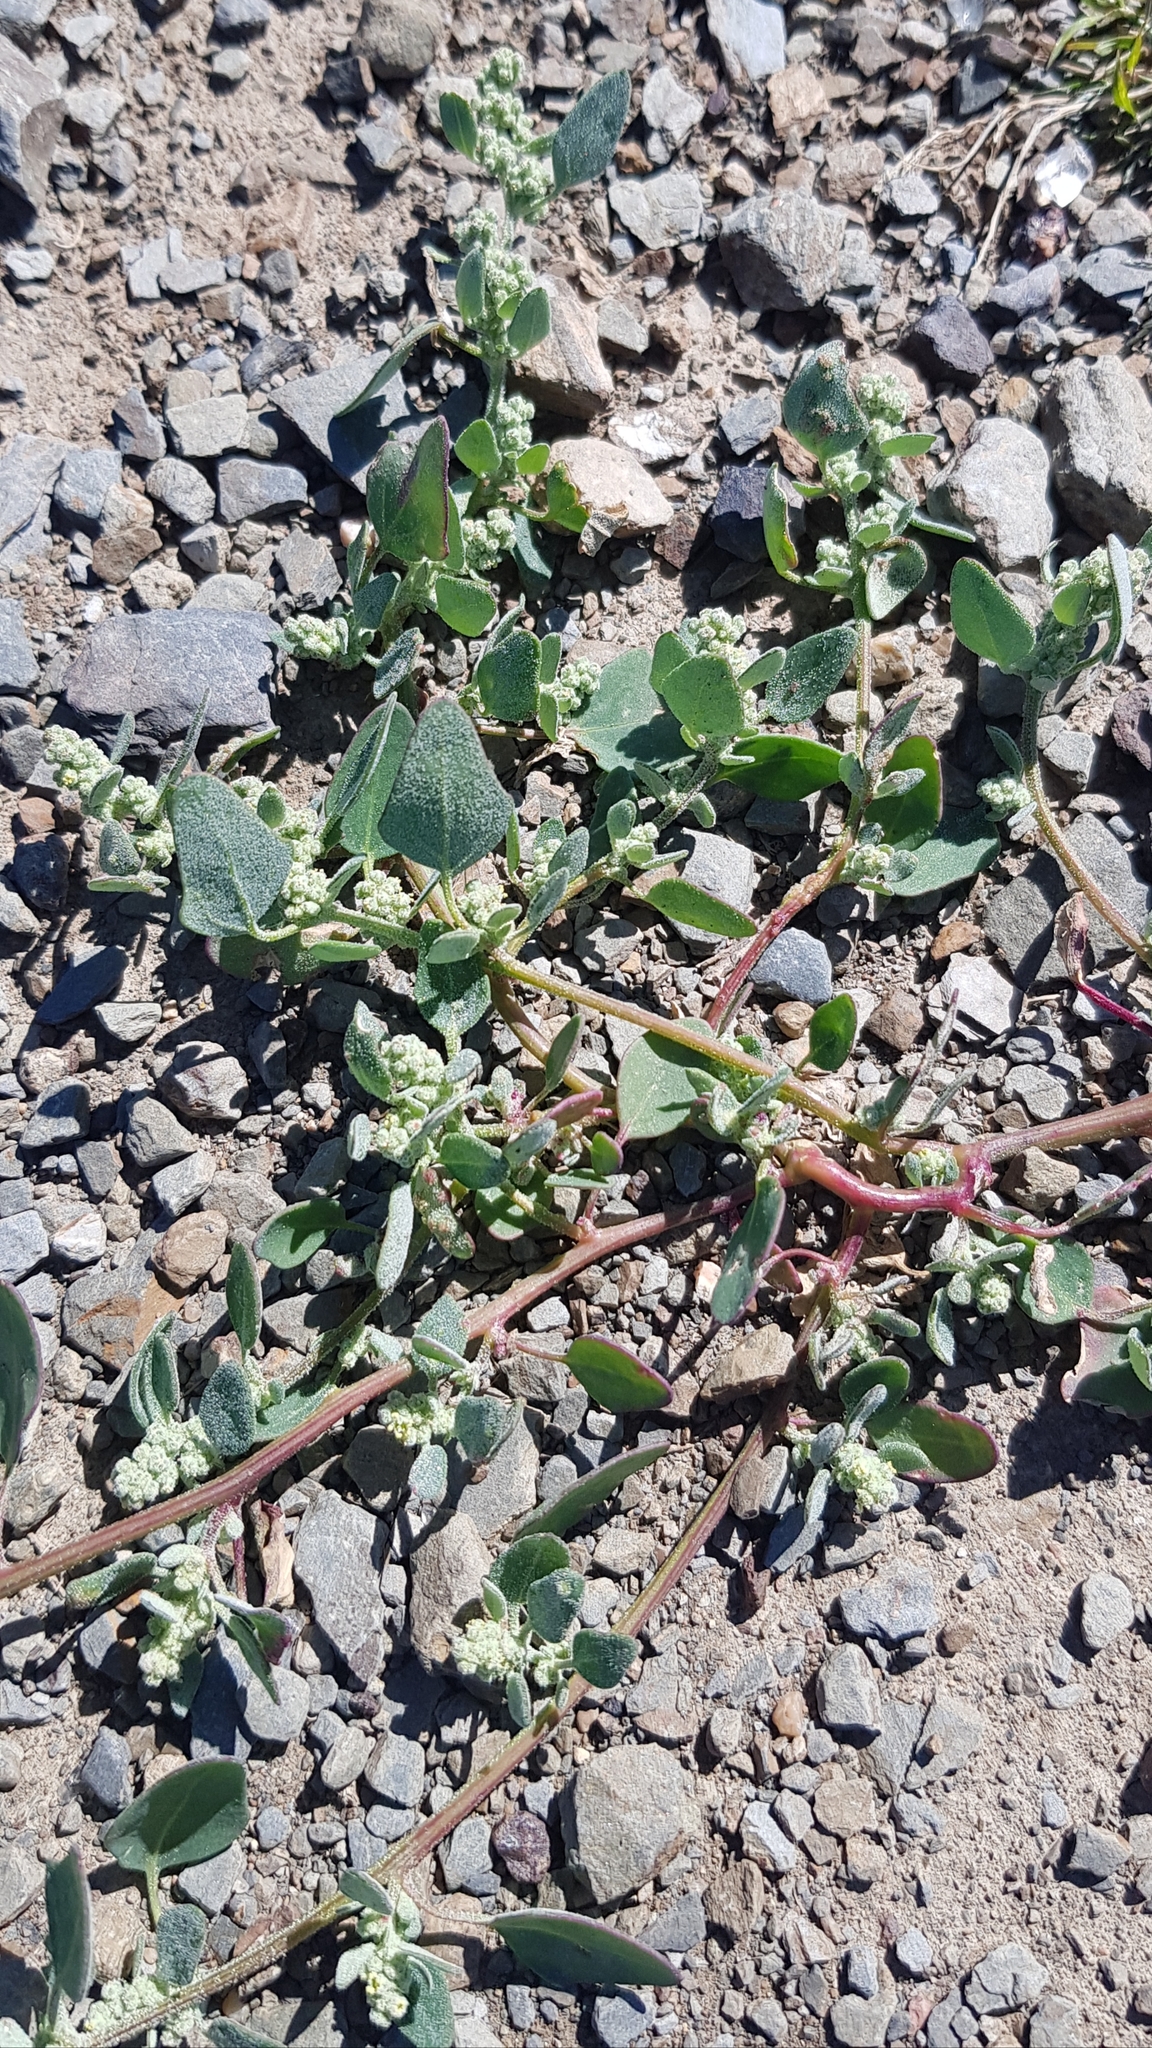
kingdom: Plantae
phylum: Tracheophyta
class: Magnoliopsida
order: Caryophyllales
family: Amaranthaceae
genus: Chenopodium
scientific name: Chenopodium karoi
